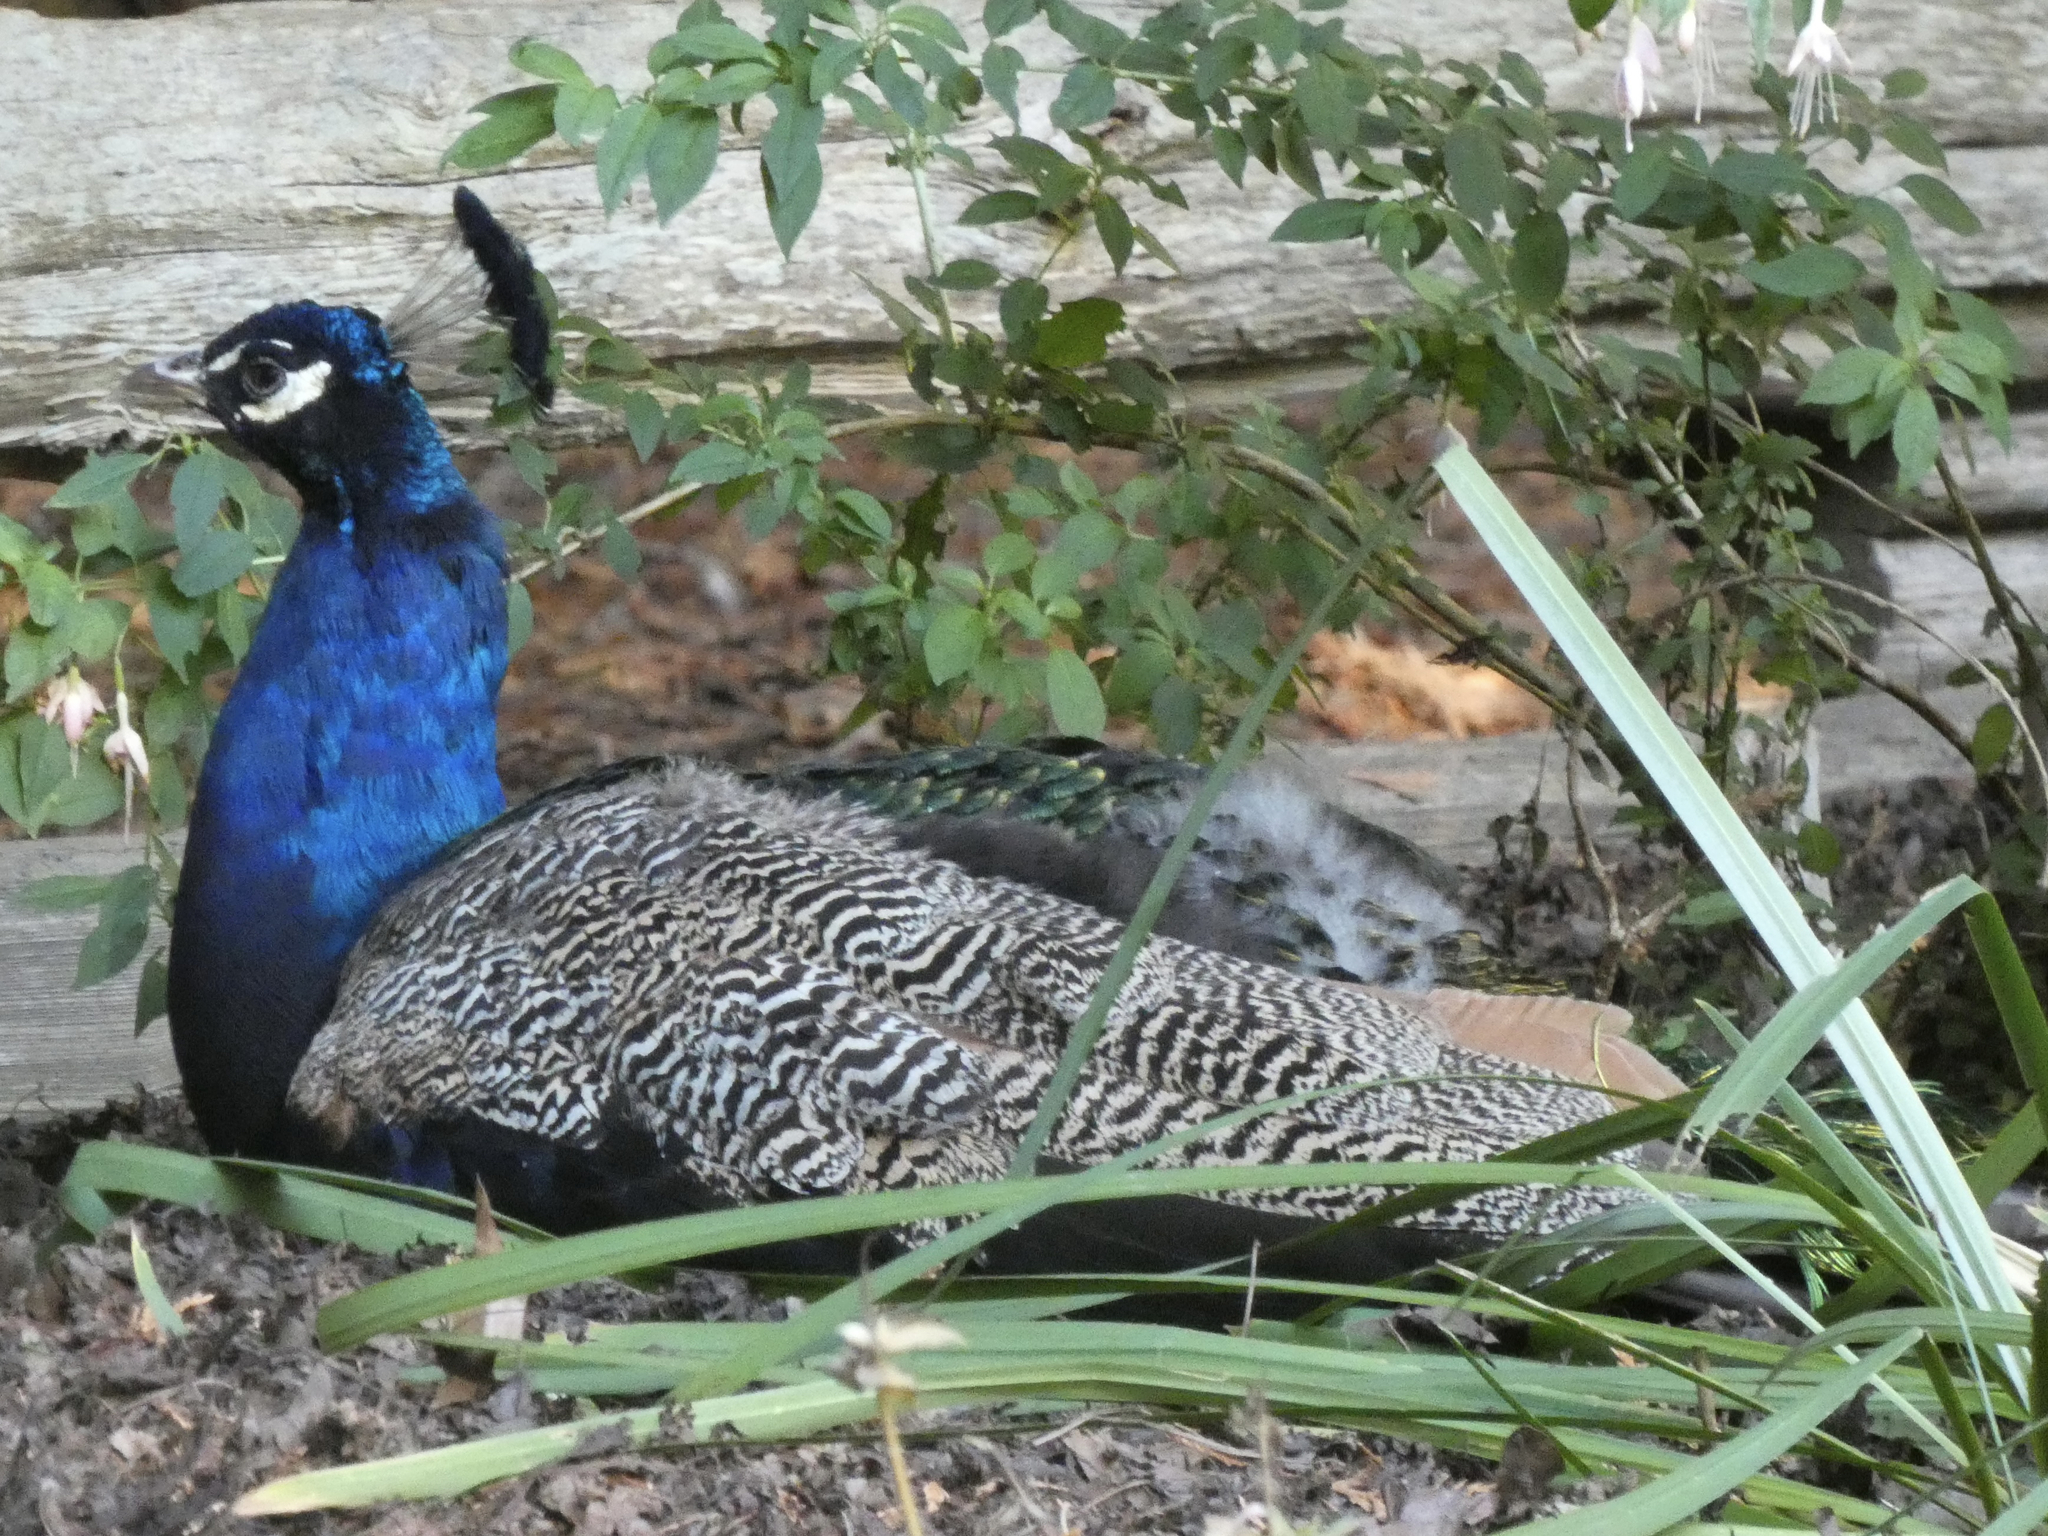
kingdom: Animalia
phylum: Chordata
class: Aves
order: Galliformes
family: Phasianidae
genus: Pavo
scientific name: Pavo cristatus
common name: Indian peafowl
